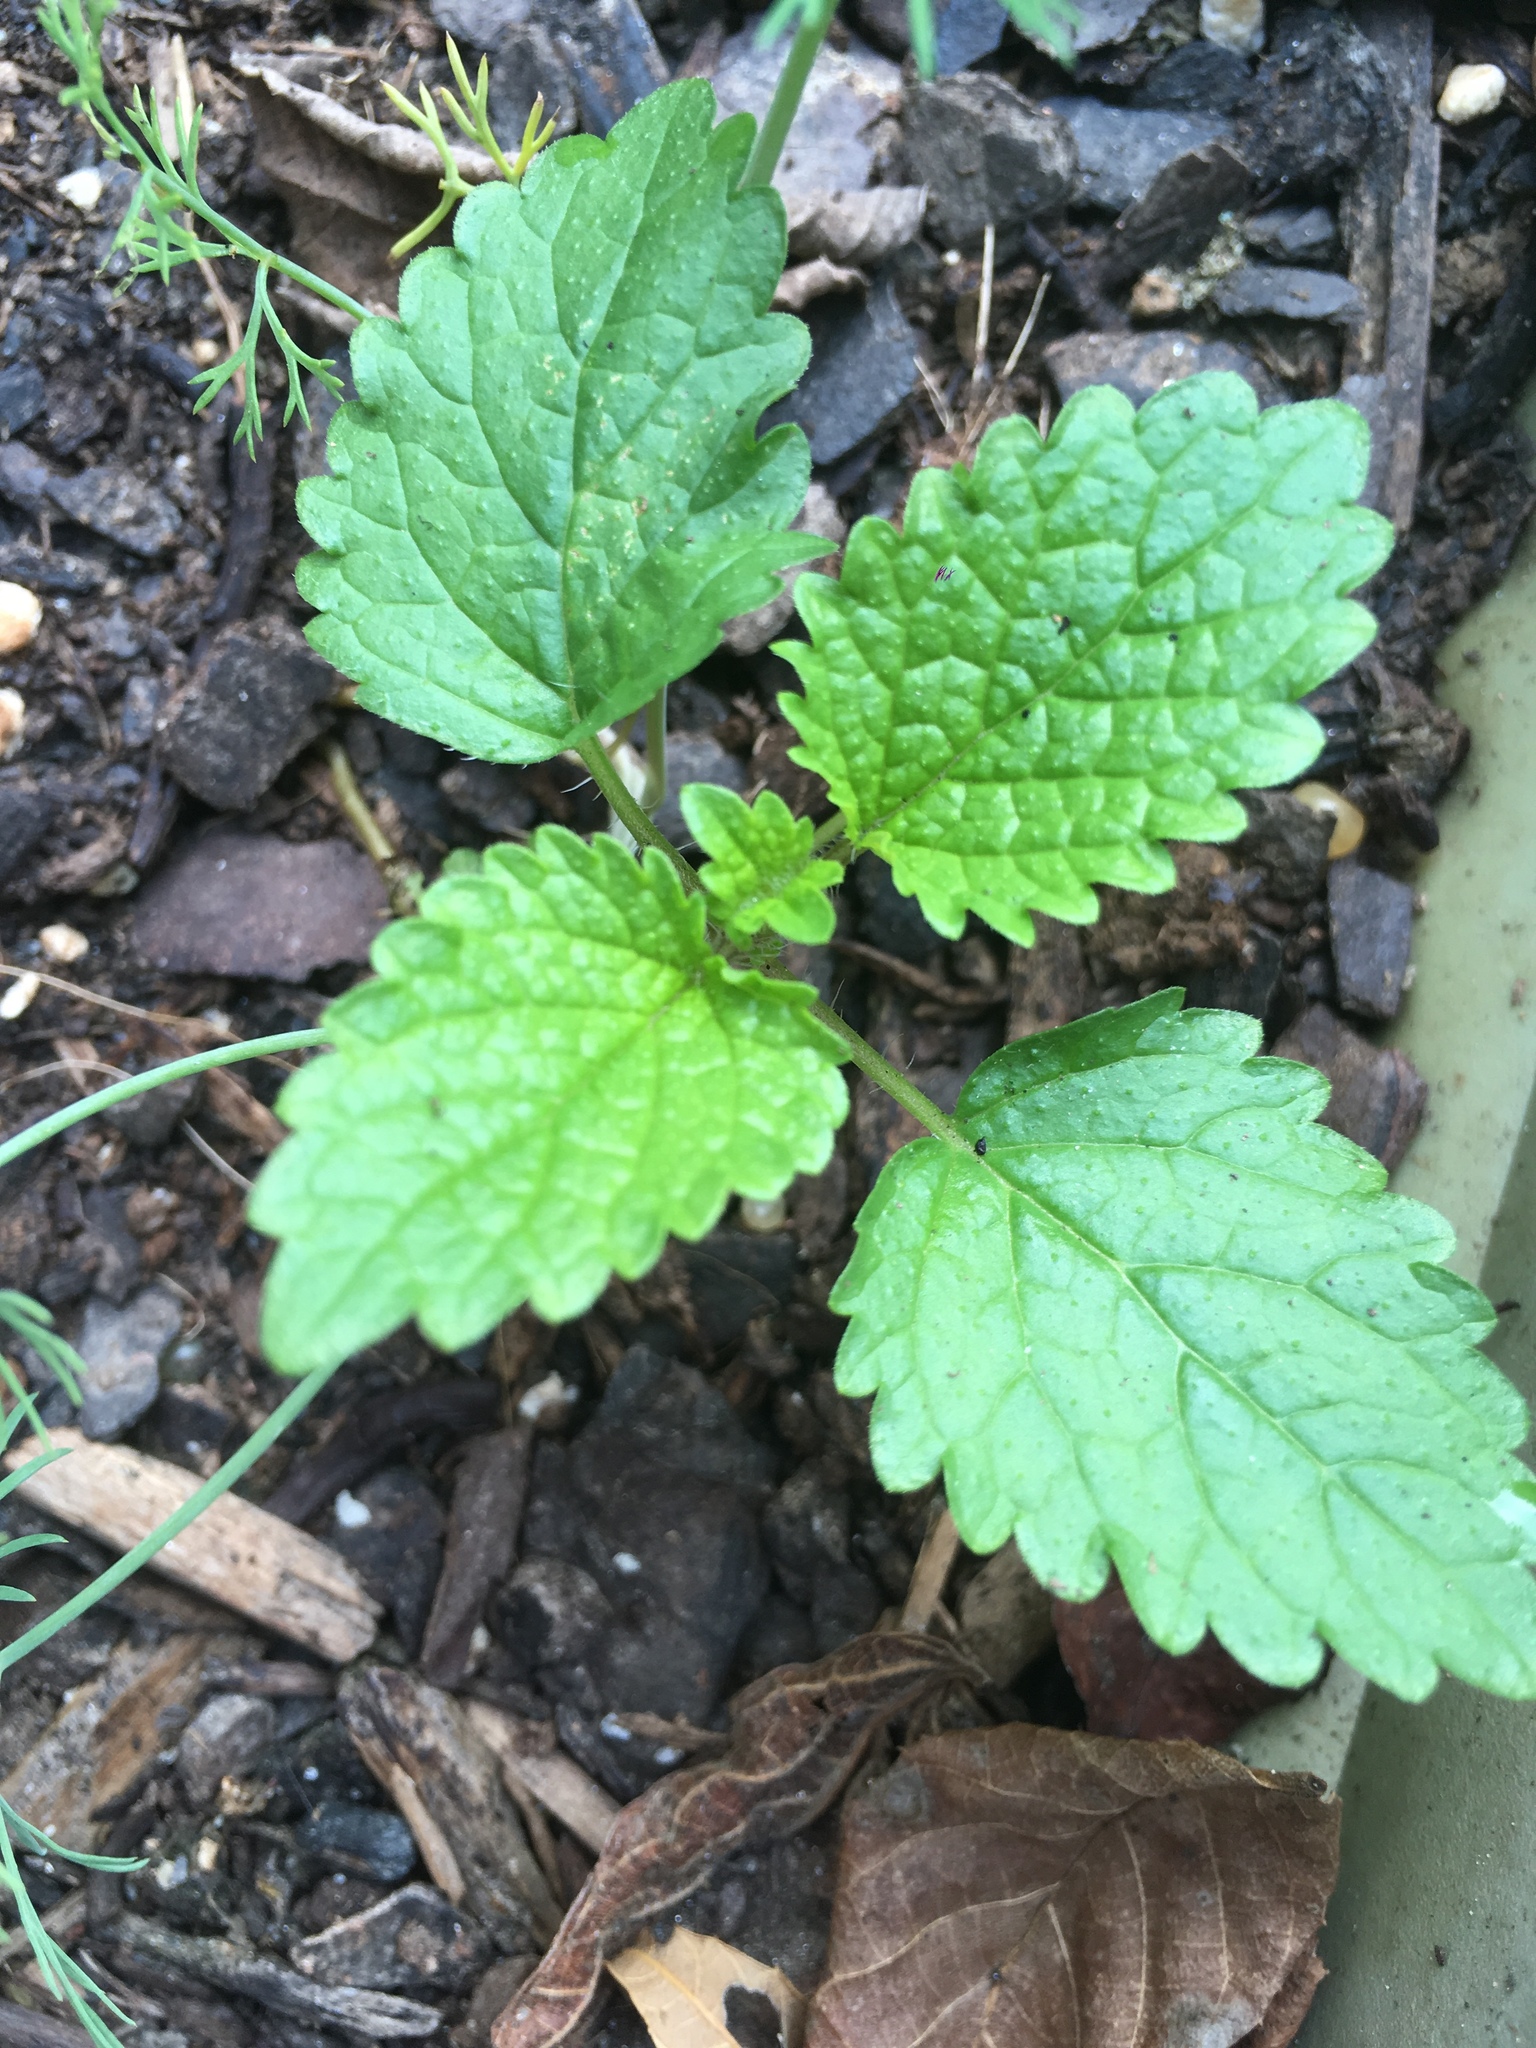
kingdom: Plantae
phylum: Tracheophyta
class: Magnoliopsida
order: Lamiales
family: Lamiaceae
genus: Melissa
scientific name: Melissa officinalis
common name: Balm
